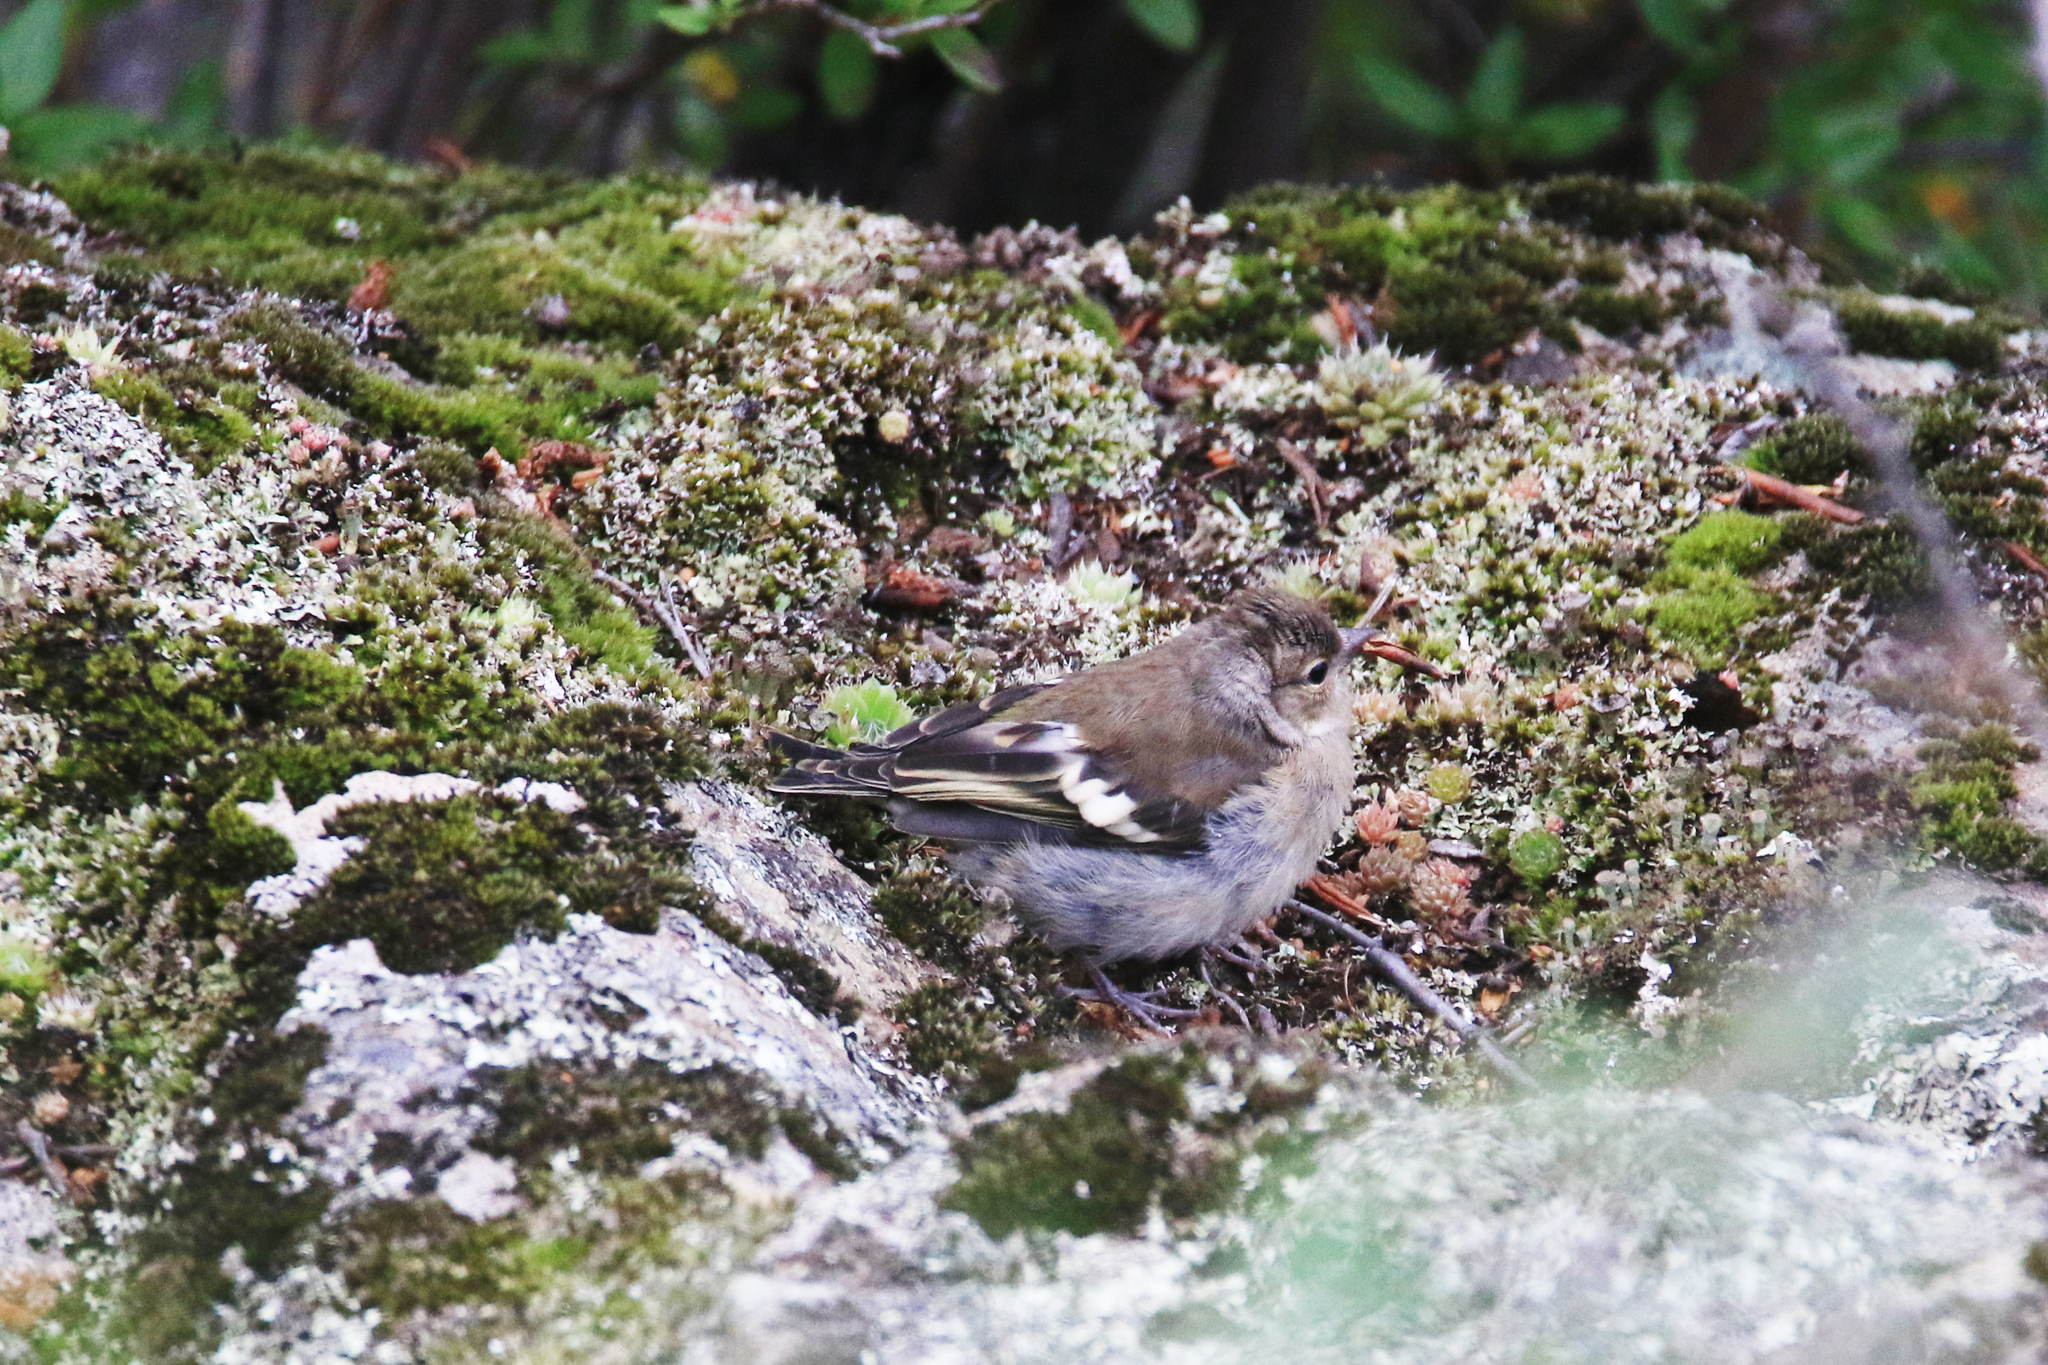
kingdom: Animalia
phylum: Chordata
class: Aves
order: Passeriformes
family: Fringillidae
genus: Fringilla
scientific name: Fringilla coelebs
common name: Common chaffinch
